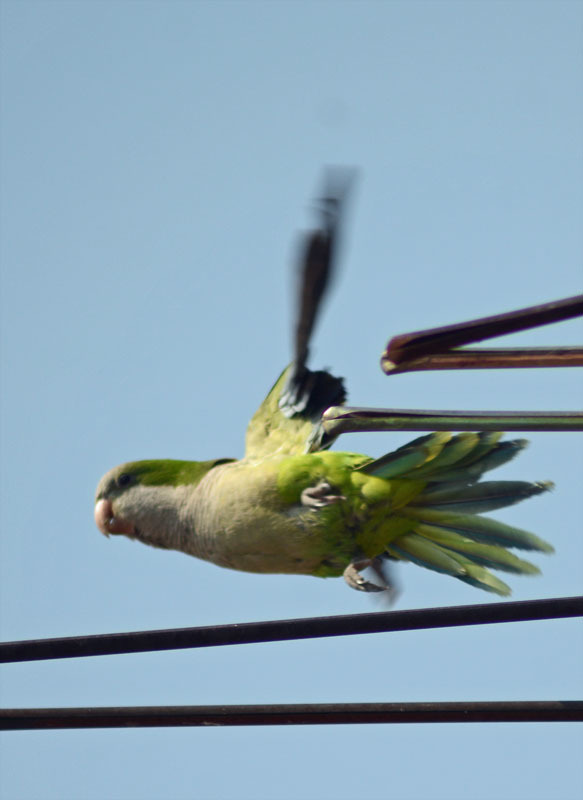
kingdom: Animalia
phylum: Chordata
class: Aves
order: Psittaciformes
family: Psittacidae
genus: Myiopsitta
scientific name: Myiopsitta monachus
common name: Monk parakeet
